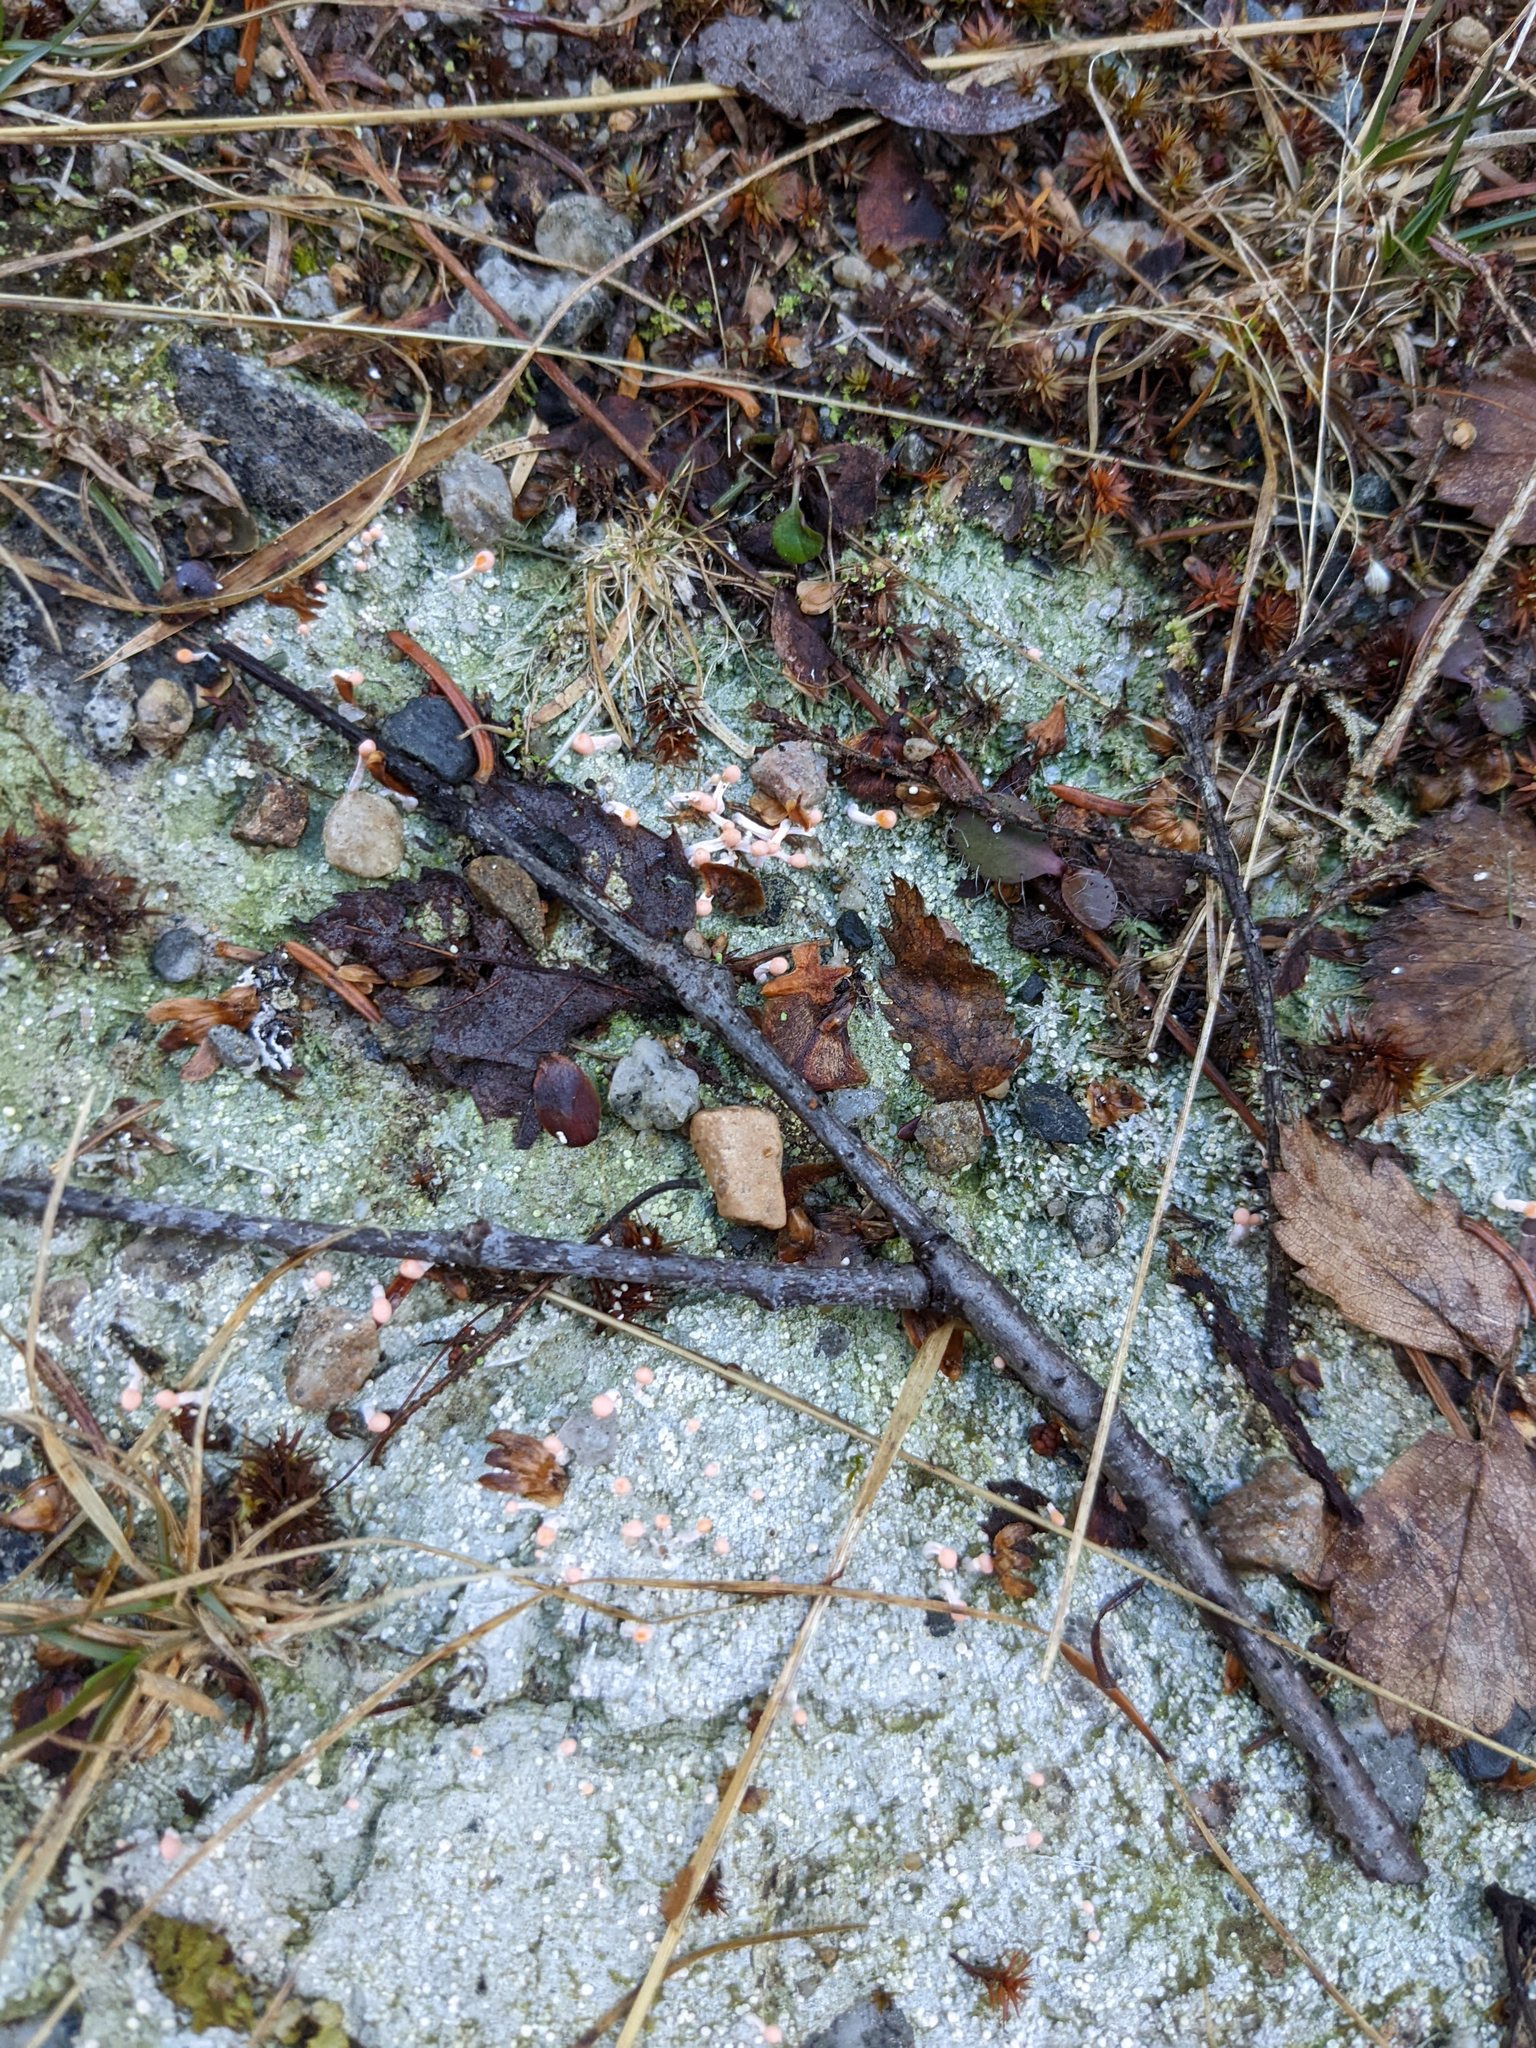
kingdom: Fungi
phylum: Ascomycota
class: Lecanoromycetes
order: Pertusariales
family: Icmadophilaceae
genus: Dibaeis
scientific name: Dibaeis baeomyces
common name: Pink earth lichen
